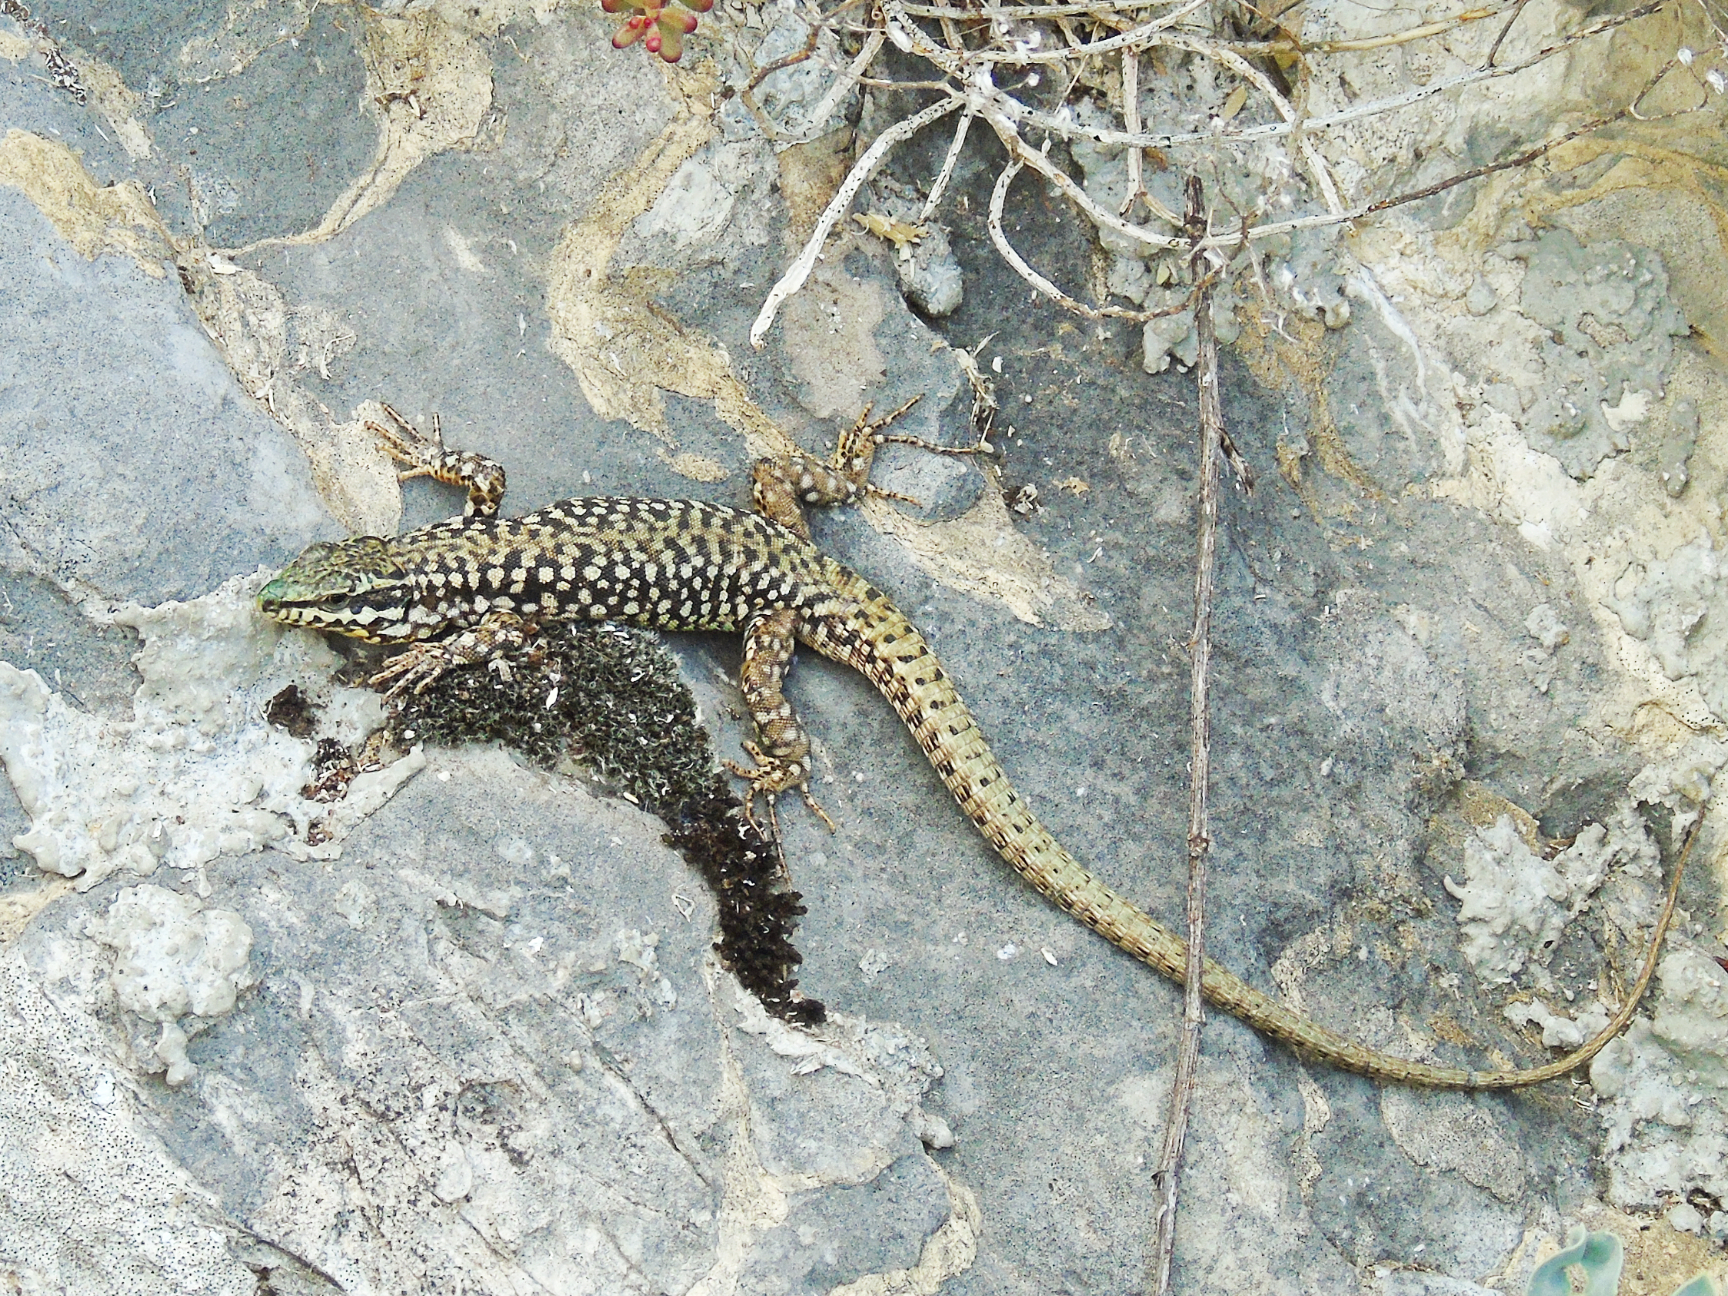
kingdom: Animalia
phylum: Chordata
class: Squamata
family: Lacertidae
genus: Podarcis
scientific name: Podarcis erhardii
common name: Erhard's wall lizard
